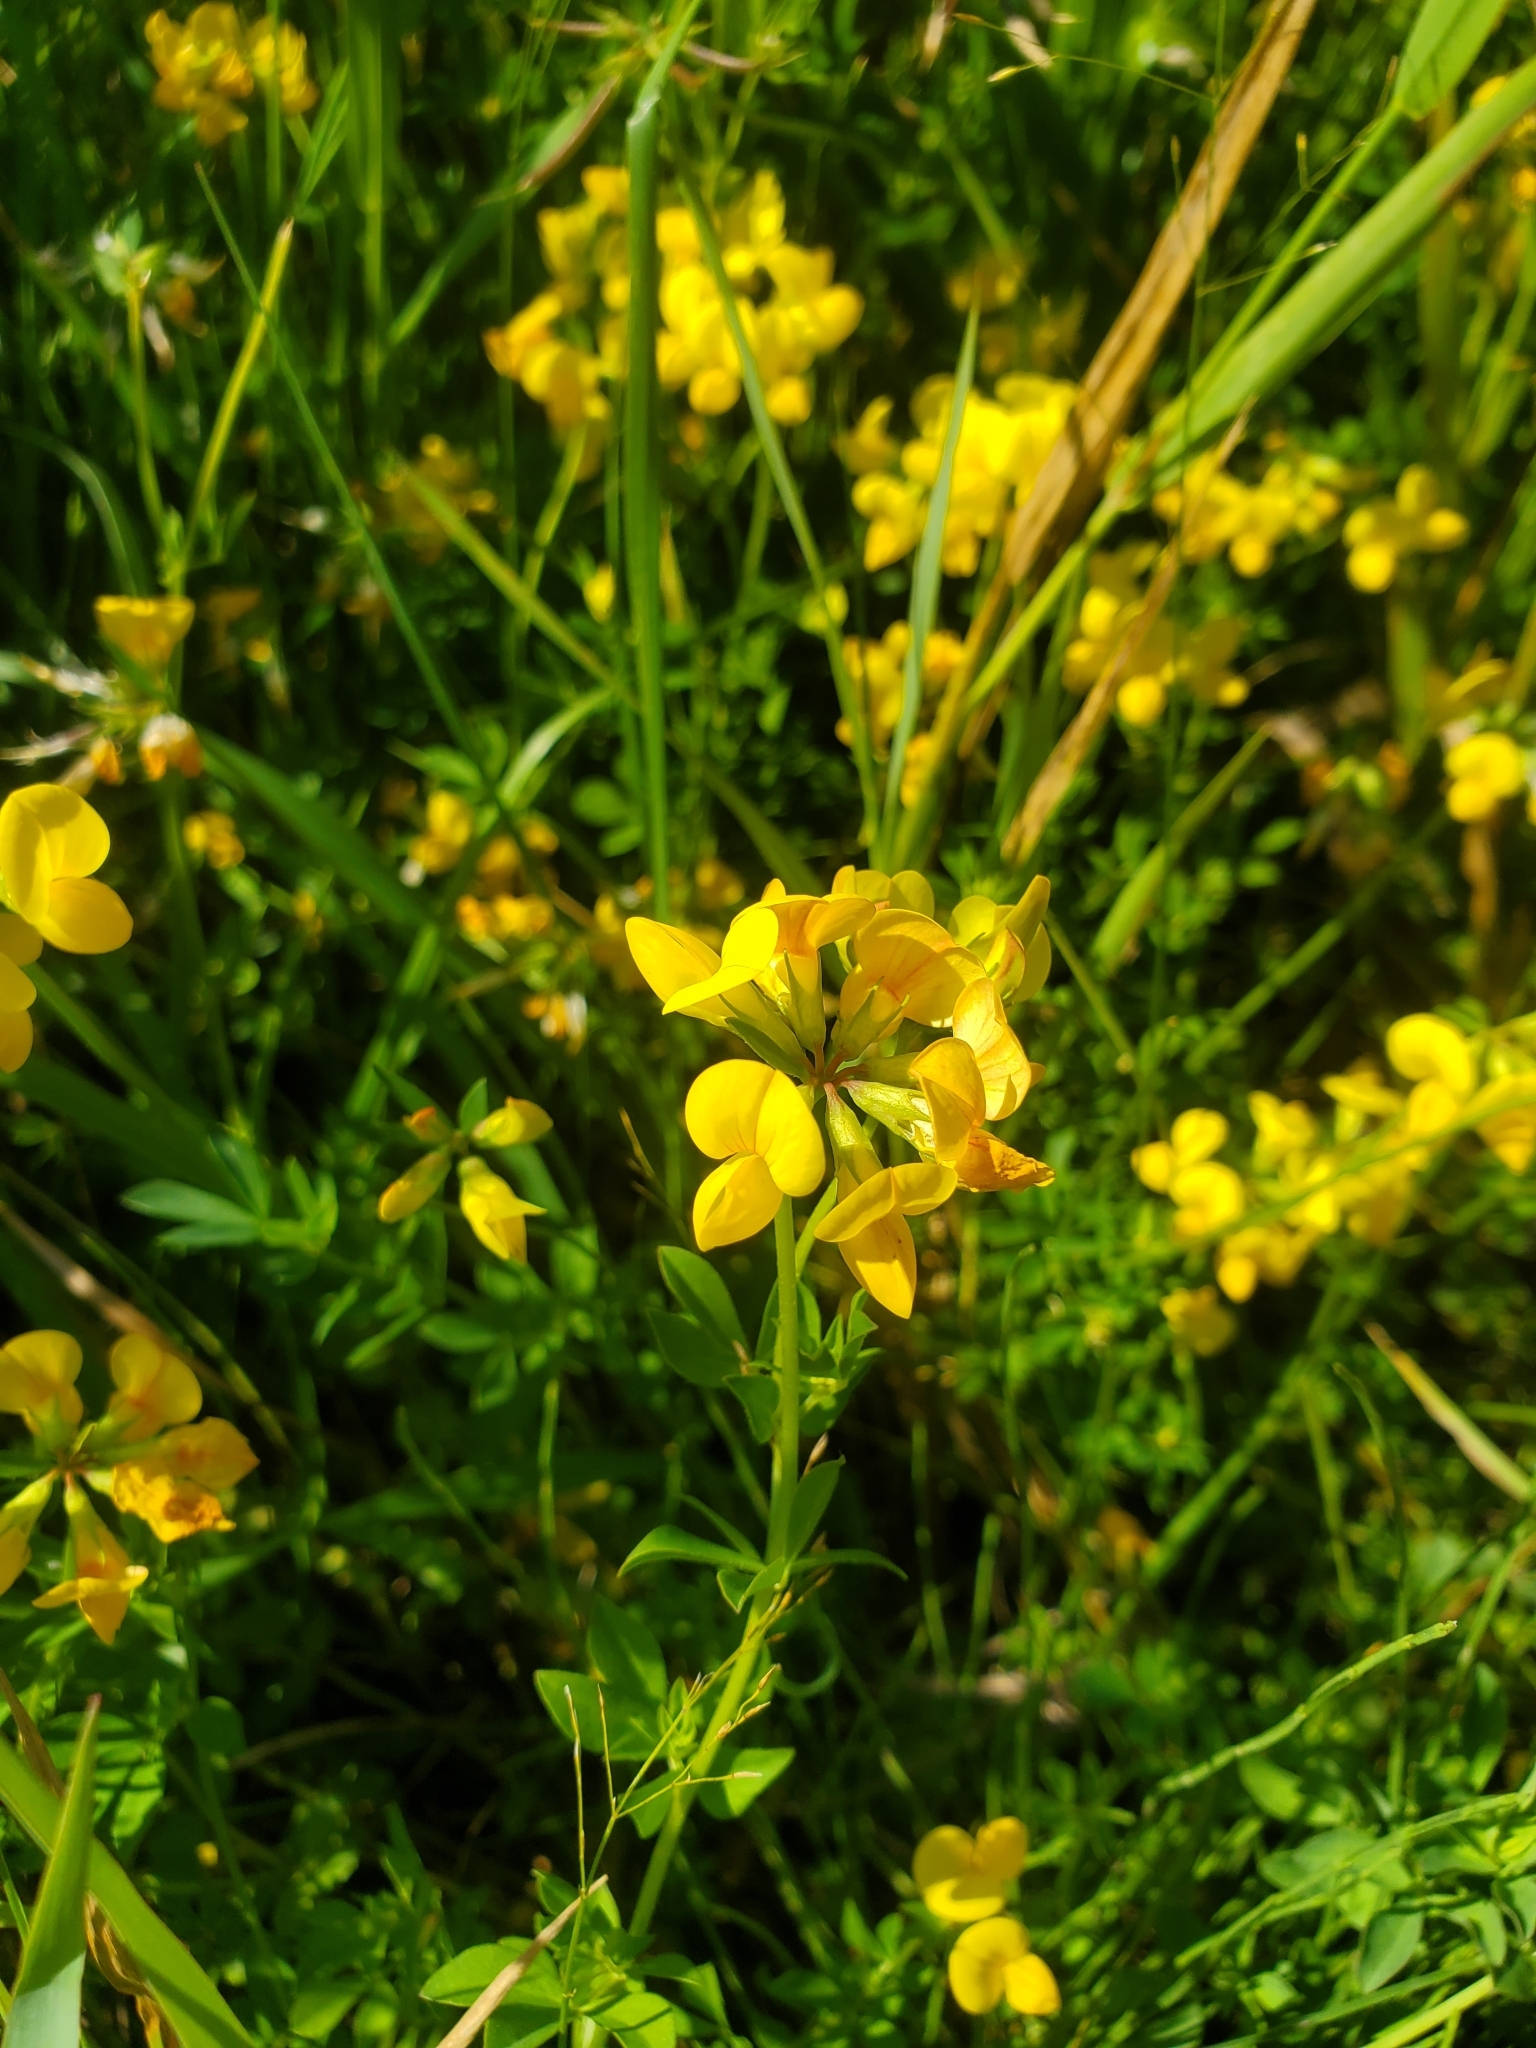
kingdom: Plantae
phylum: Tracheophyta
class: Magnoliopsida
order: Fabales
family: Fabaceae
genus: Lotus
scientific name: Lotus corniculatus
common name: Common bird's-foot-trefoil
